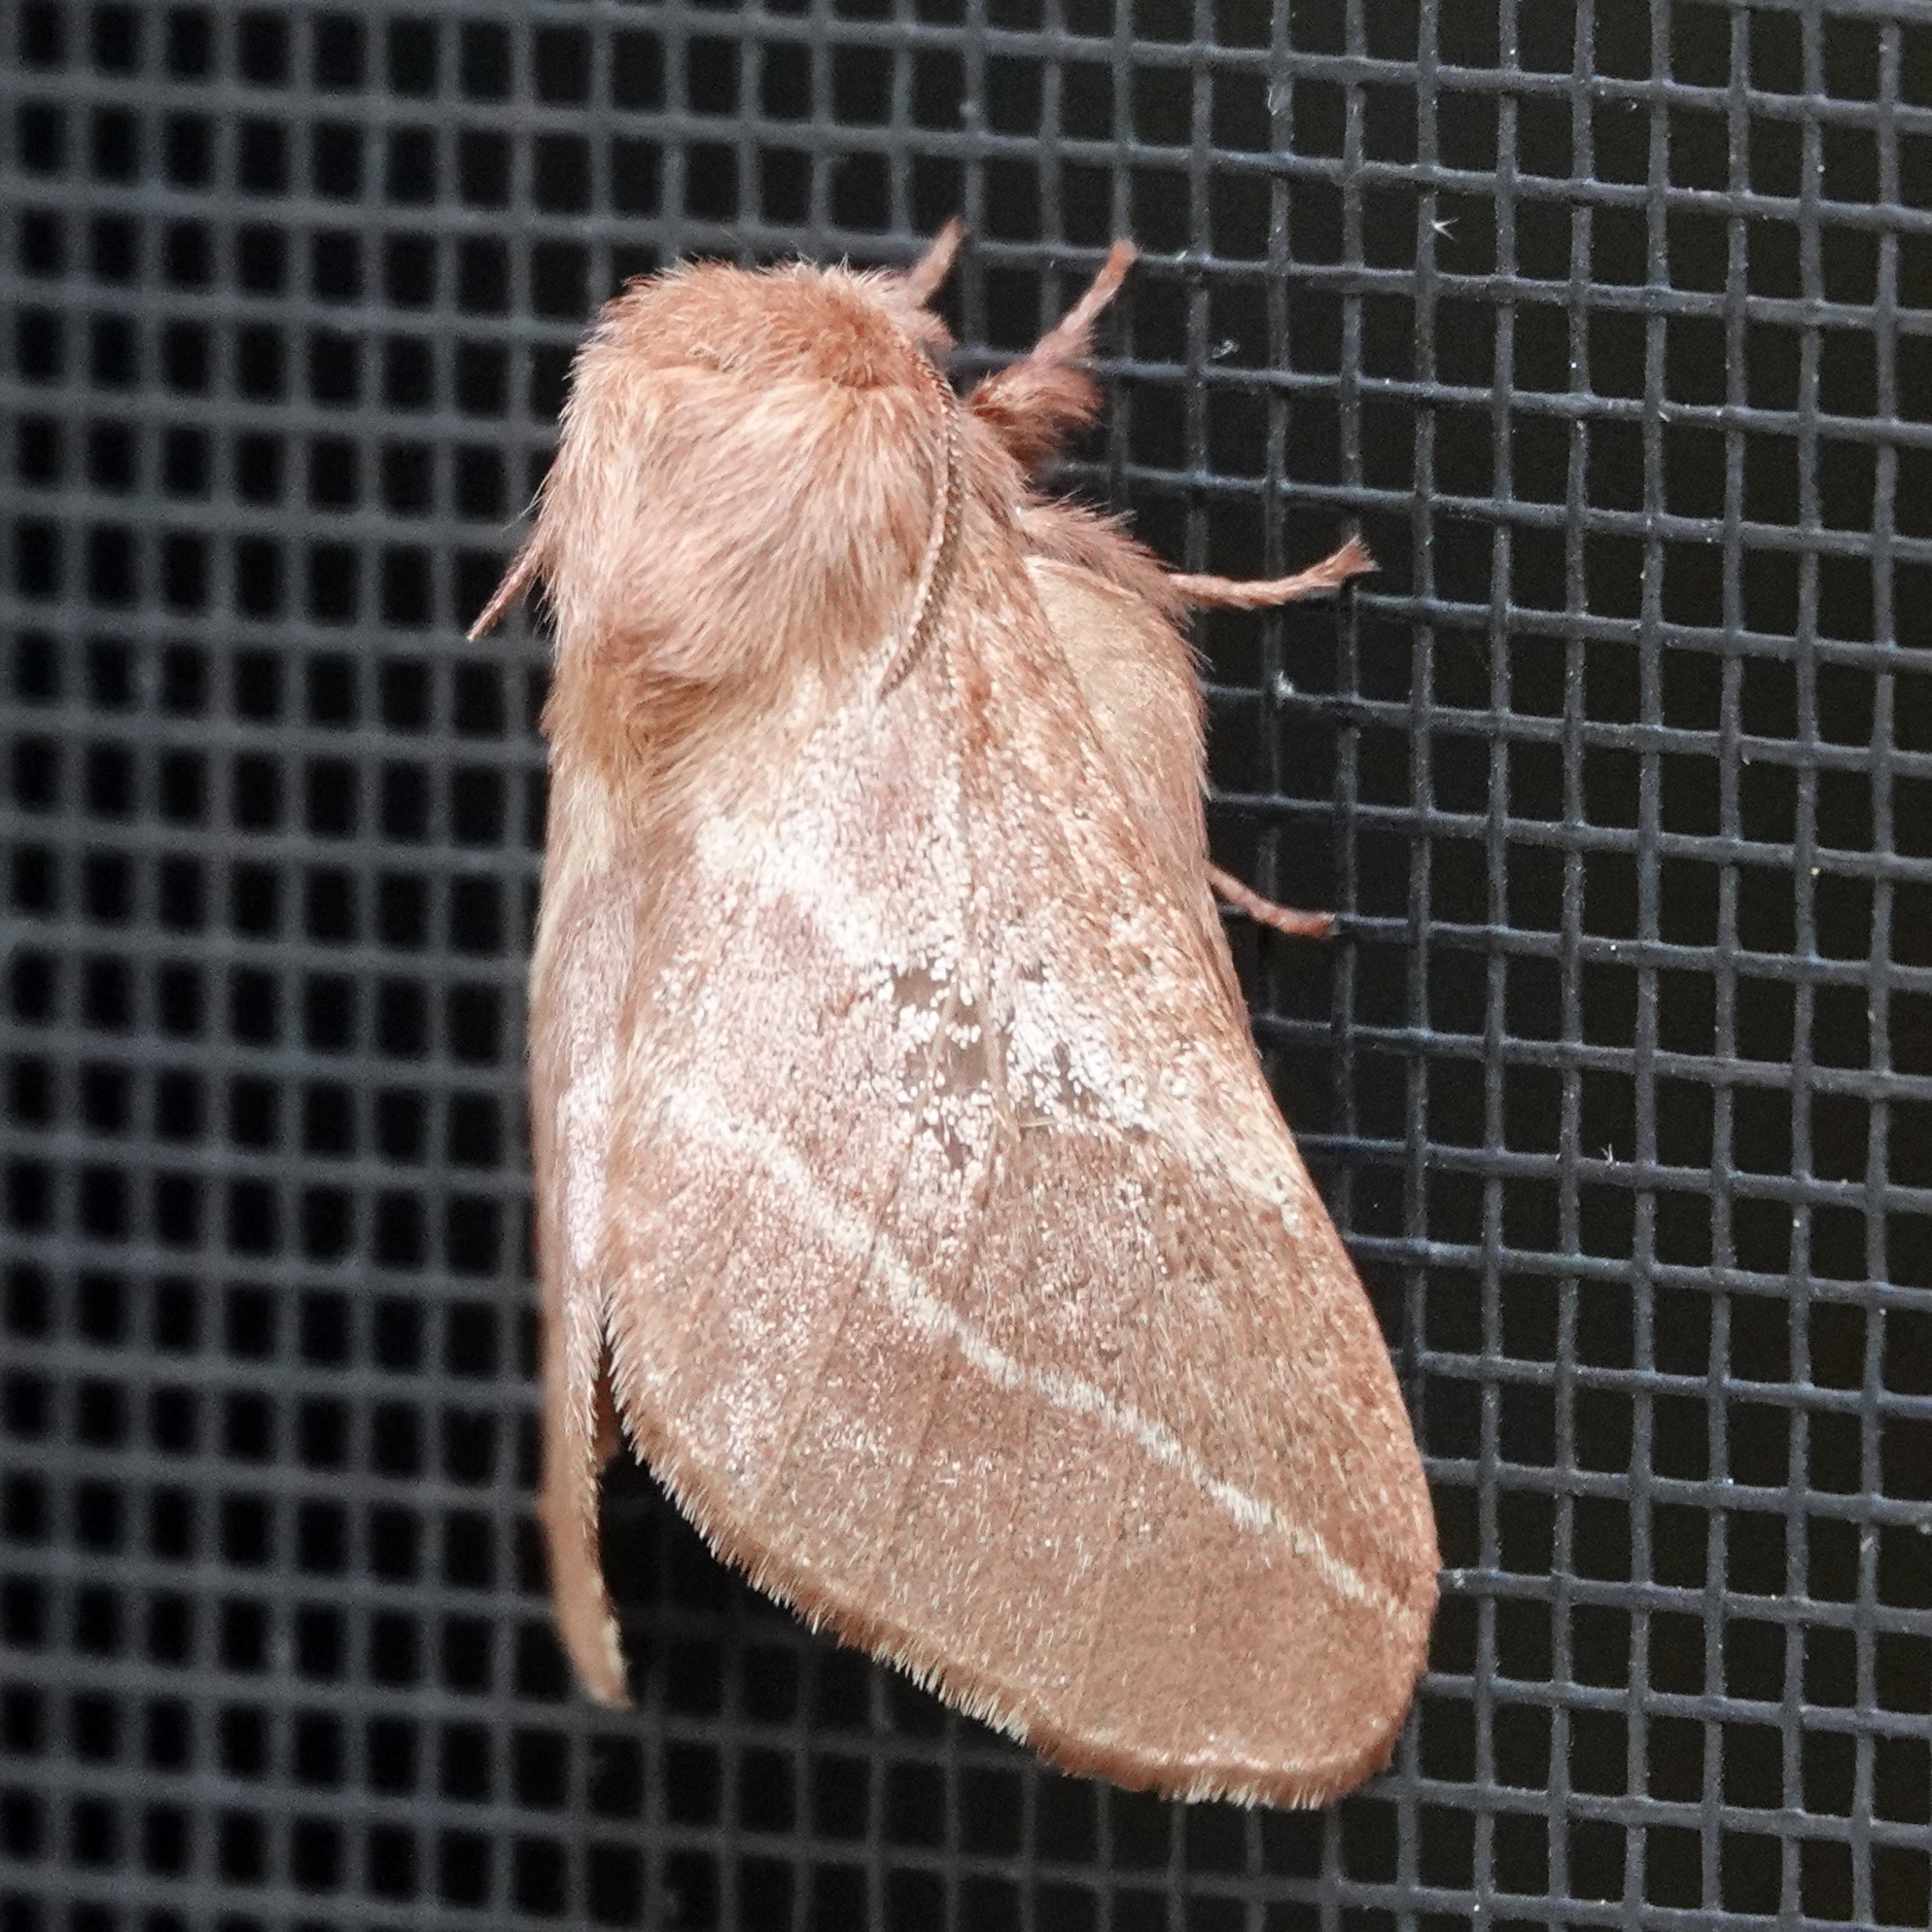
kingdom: Animalia
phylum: Arthropoda
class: Insecta
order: Lepidoptera
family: Lasiocampidae
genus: Malacosoma
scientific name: Malacosoma americana
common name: Eastern tent caterpillar moth
